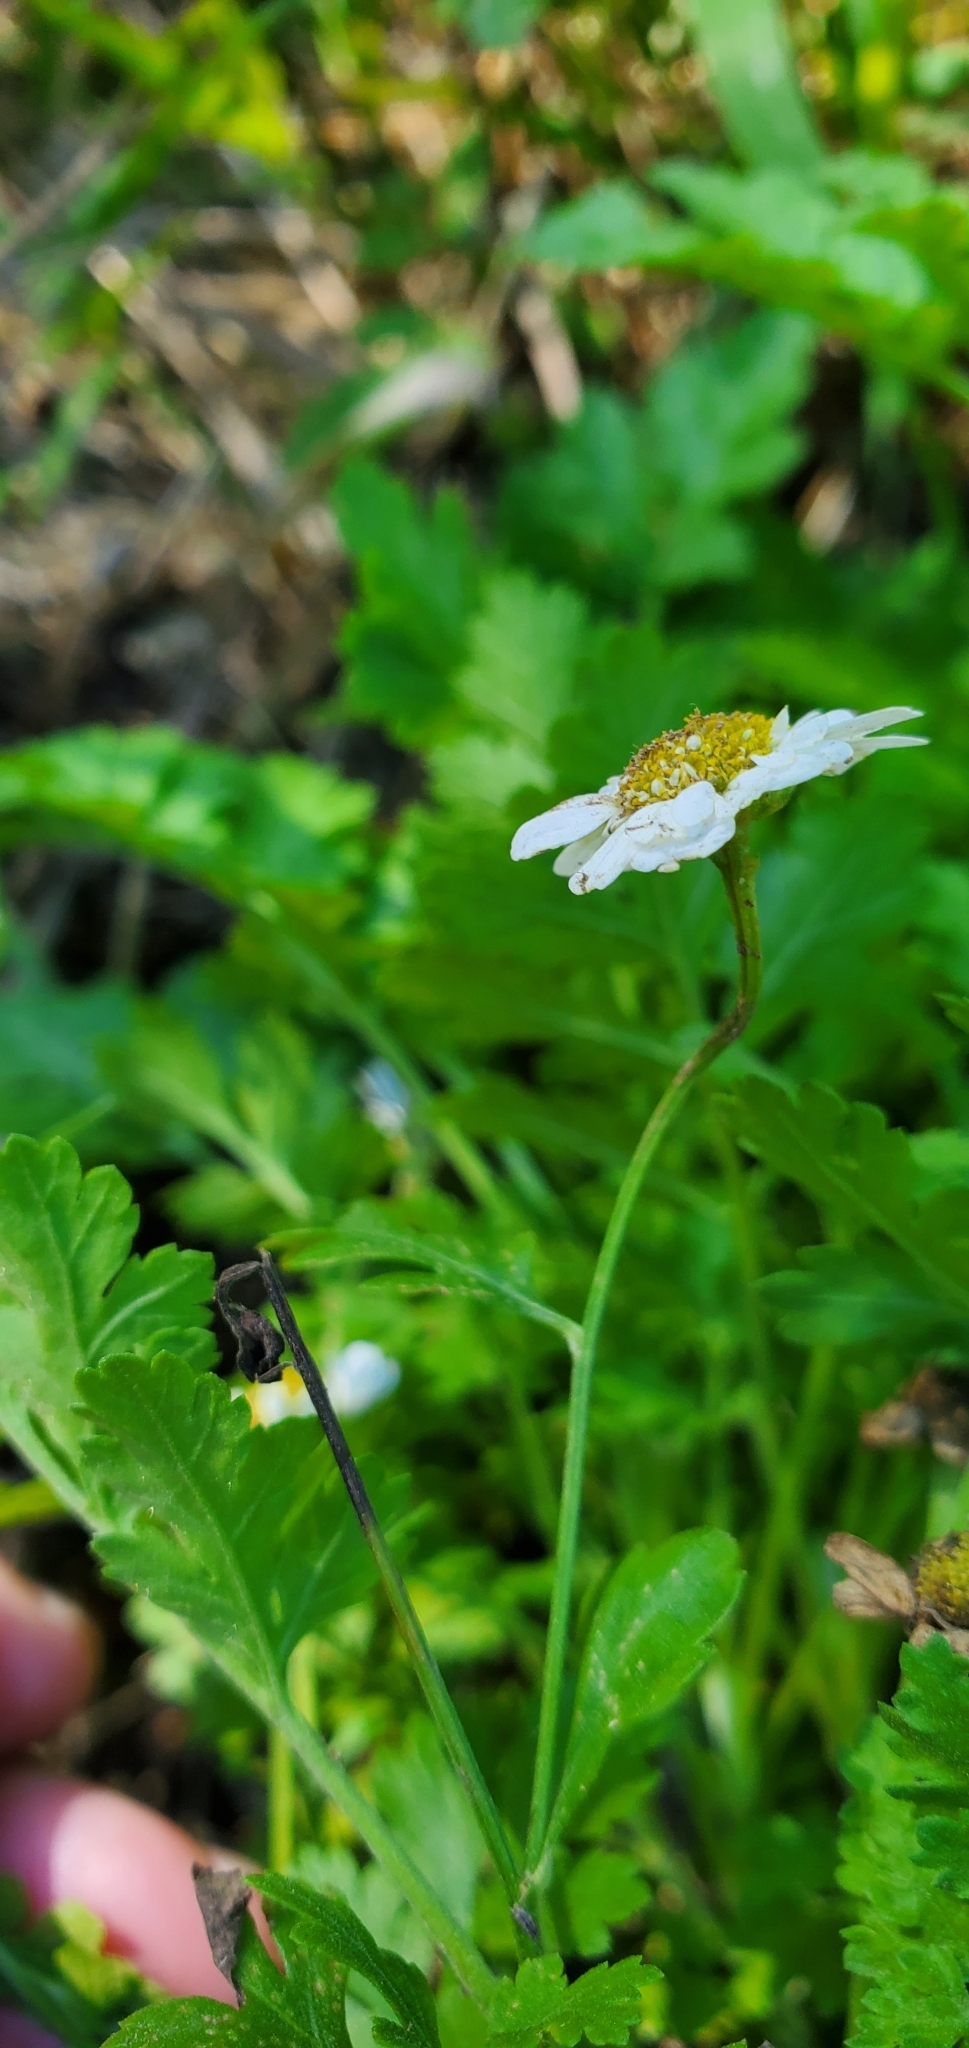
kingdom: Plantae
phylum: Tracheophyta
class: Magnoliopsida
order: Asterales
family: Asteraceae
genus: Tanacetum
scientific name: Tanacetum parthenium
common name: Feverfew
